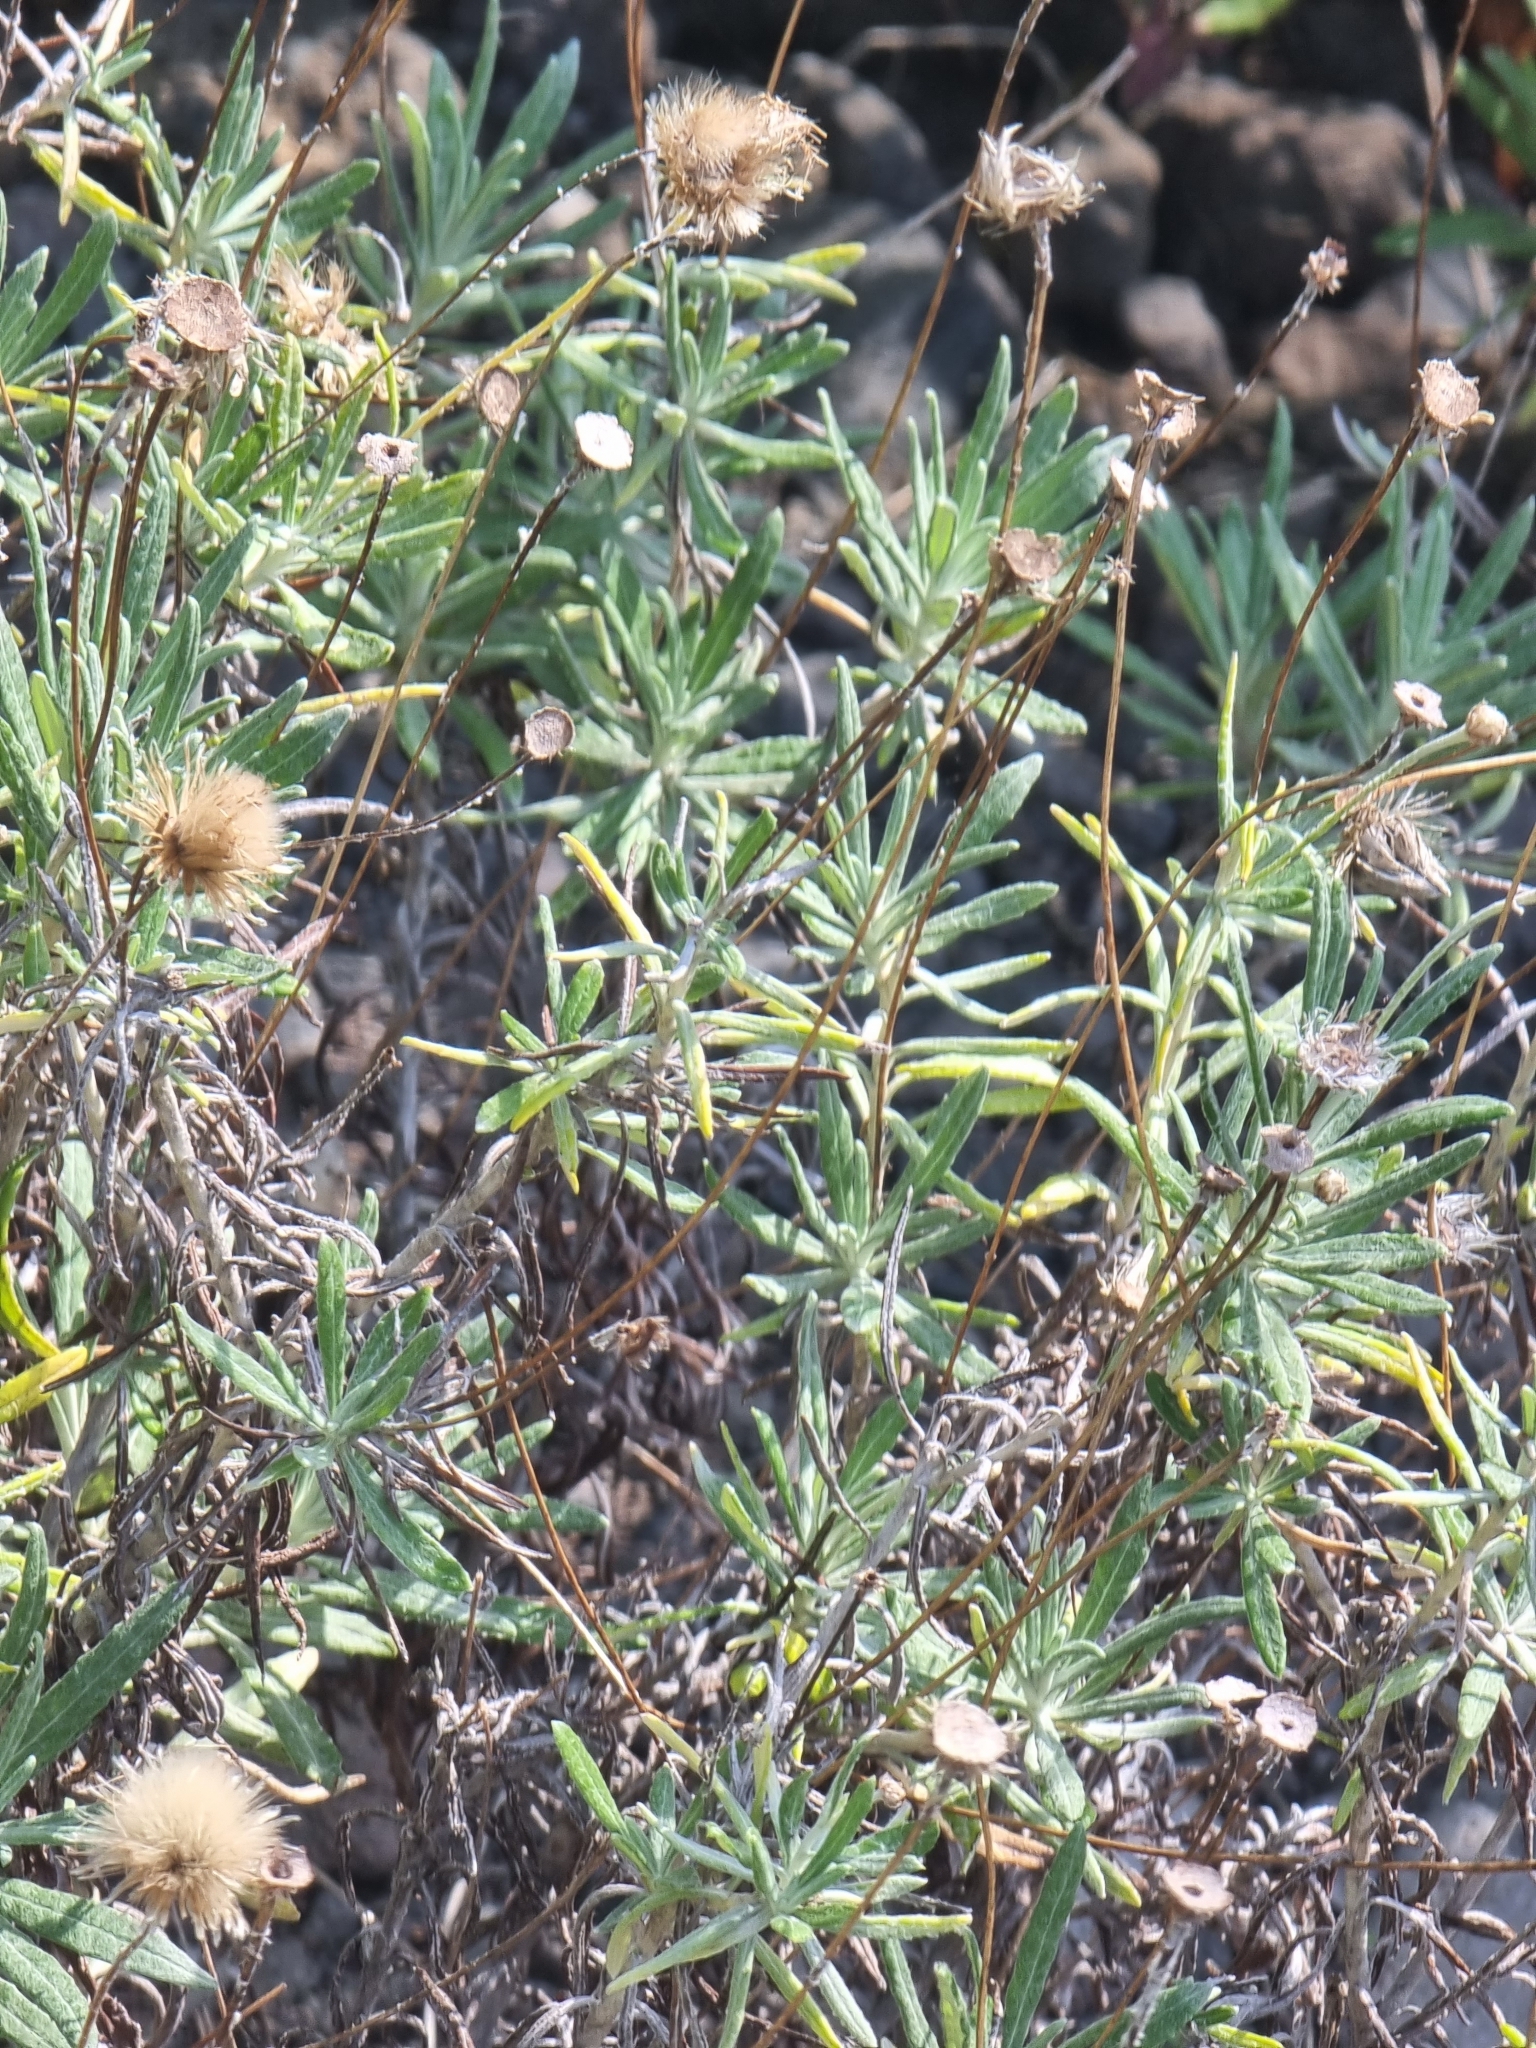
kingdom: Plantae
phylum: Tracheophyta
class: Magnoliopsida
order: Asterales
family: Asteraceae
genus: Phagnalon
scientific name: Phagnalon saxatile
